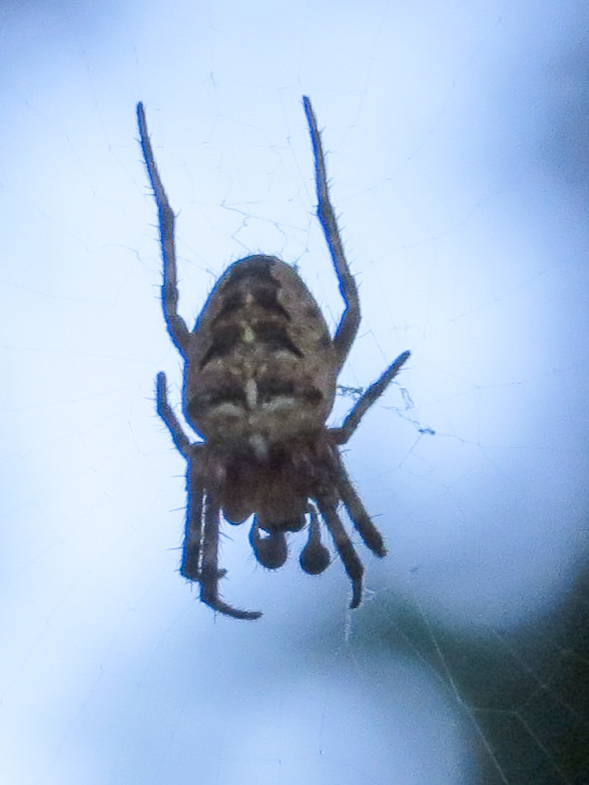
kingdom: Animalia
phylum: Arthropoda
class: Arachnida
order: Araneae
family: Araneidae
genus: Araneus
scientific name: Araneus diadematus
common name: Cross orbweaver
